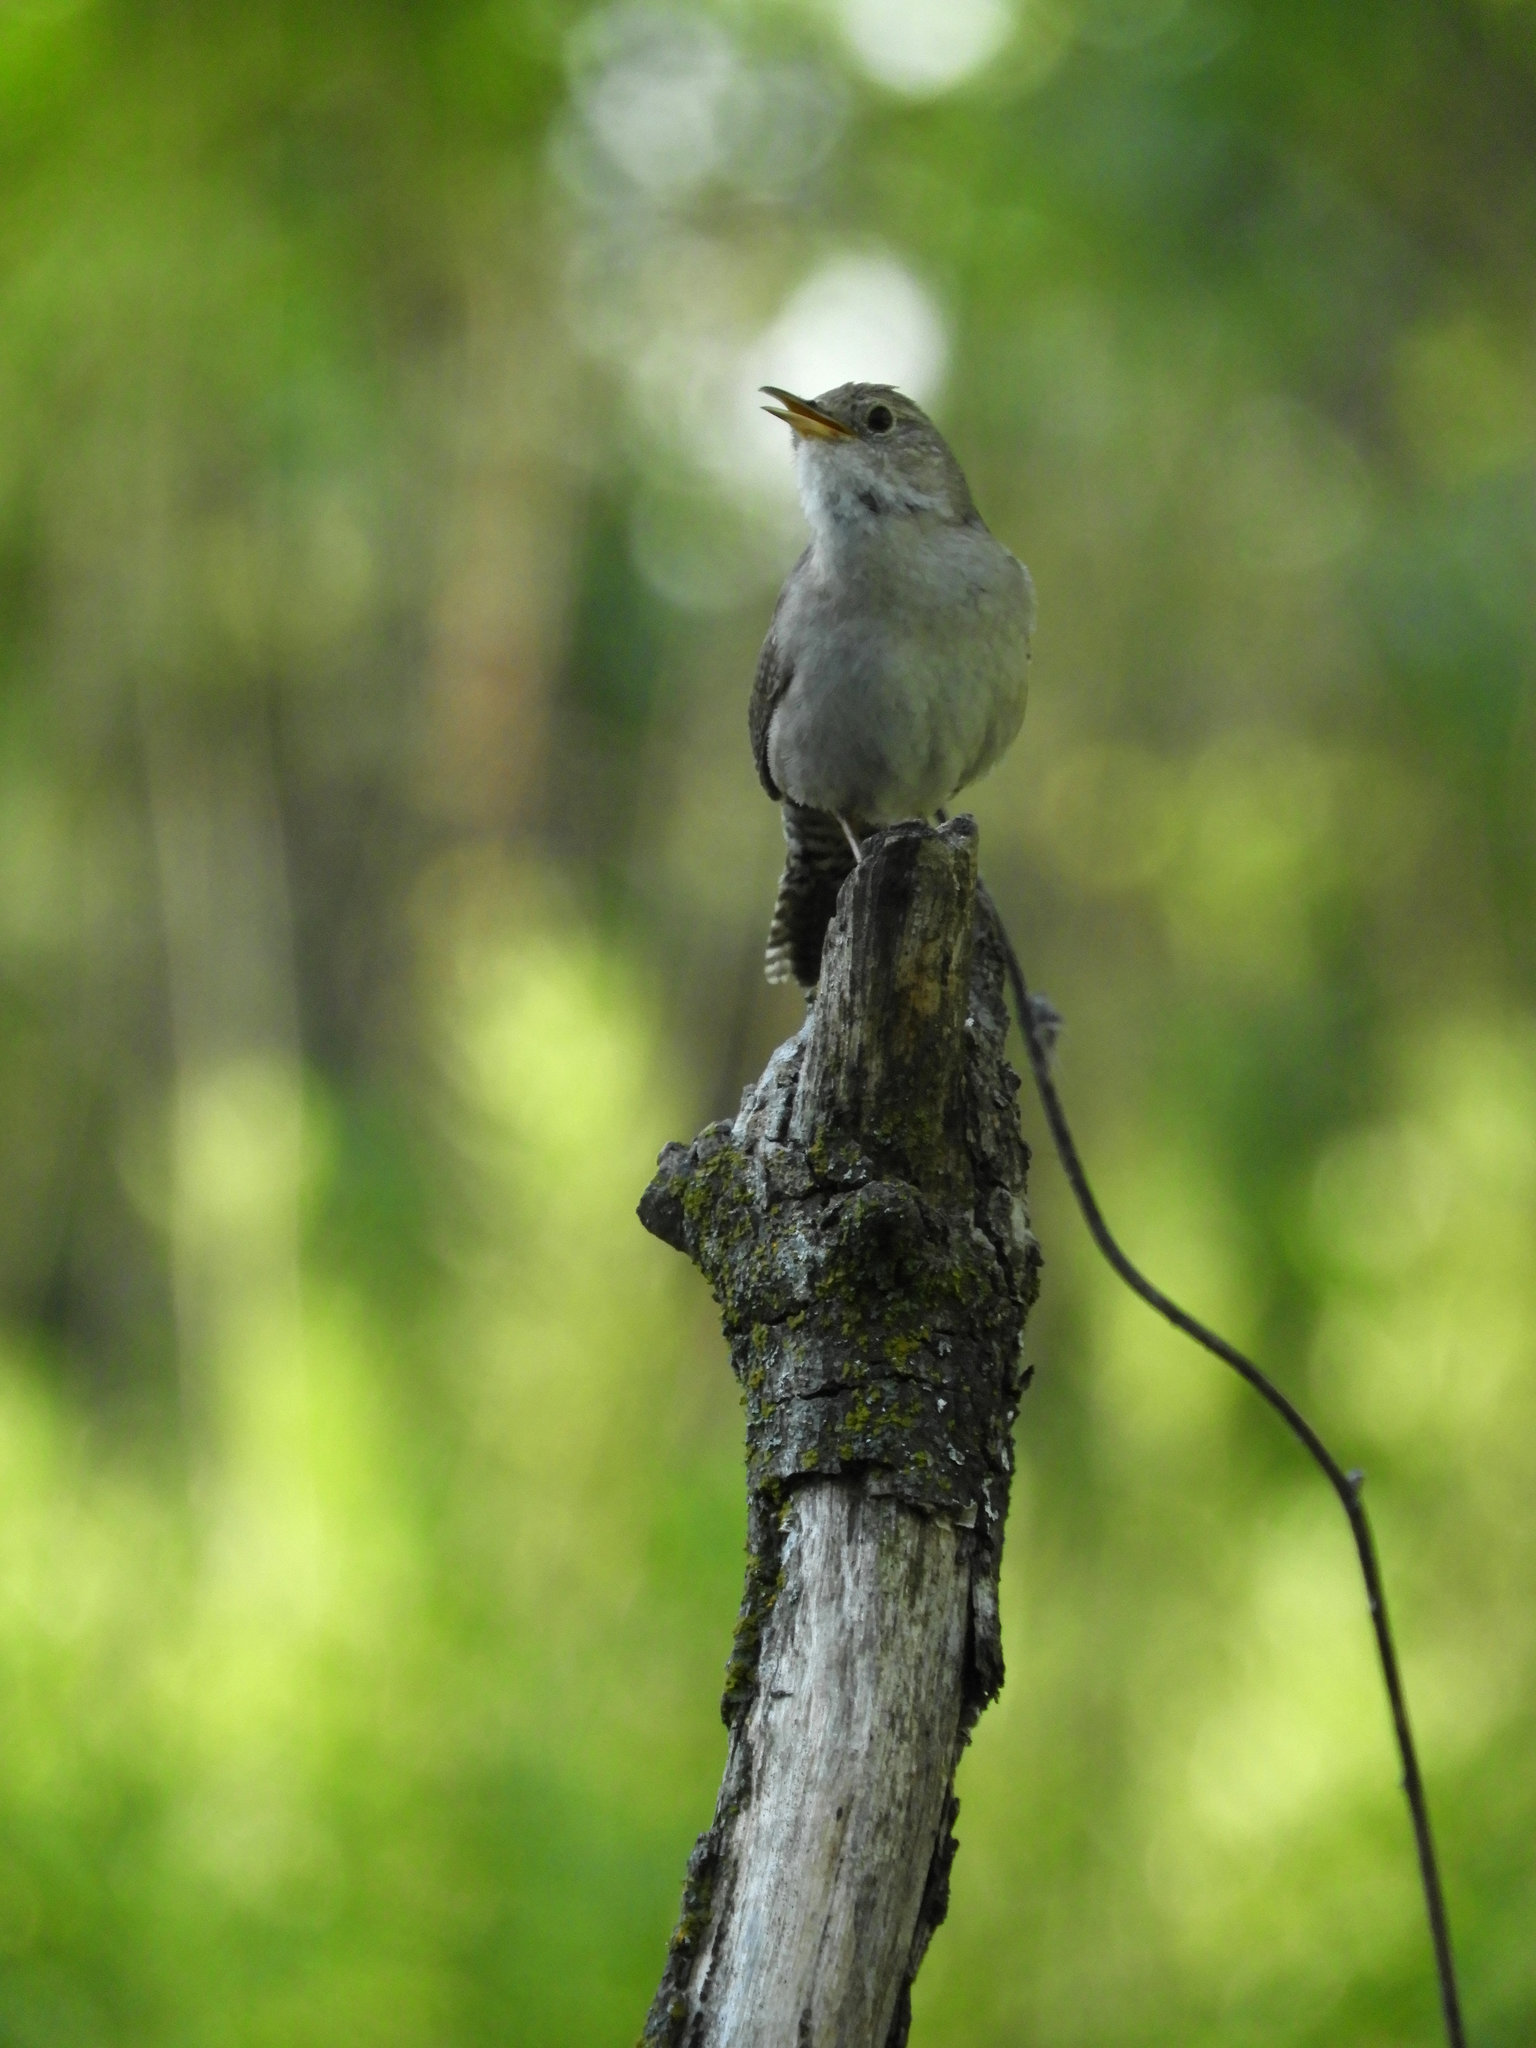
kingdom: Animalia
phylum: Chordata
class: Aves
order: Passeriformes
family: Troglodytidae
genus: Troglodytes
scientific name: Troglodytes aedon
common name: House wren
